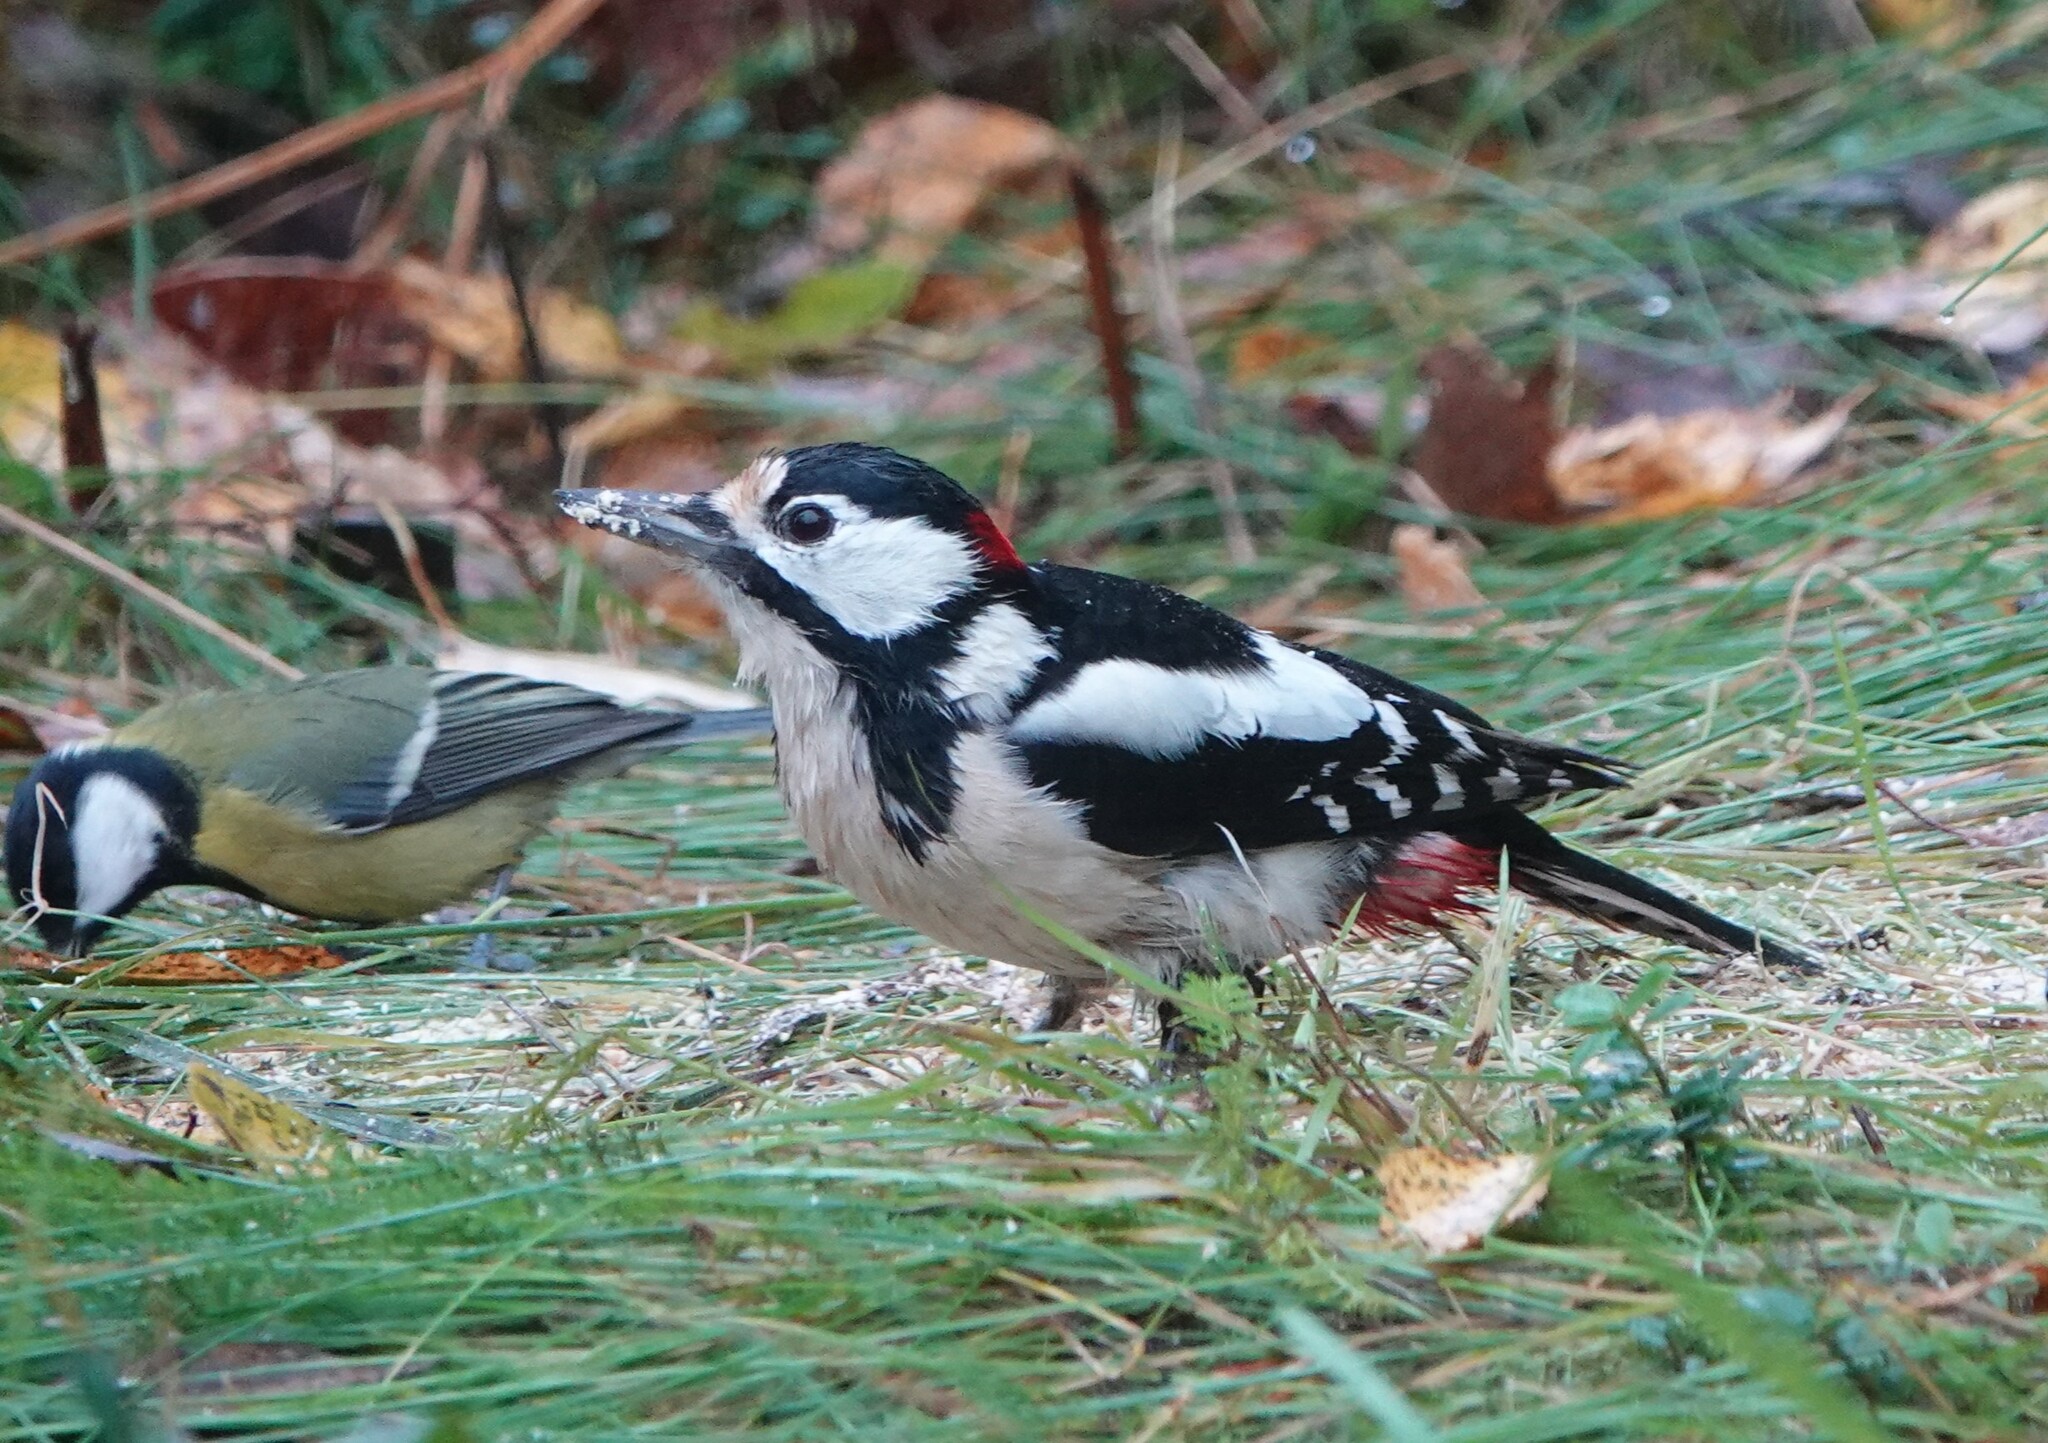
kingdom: Animalia
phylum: Chordata
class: Aves
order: Piciformes
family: Picidae
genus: Dendrocopos
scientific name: Dendrocopos major
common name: Great spotted woodpecker
